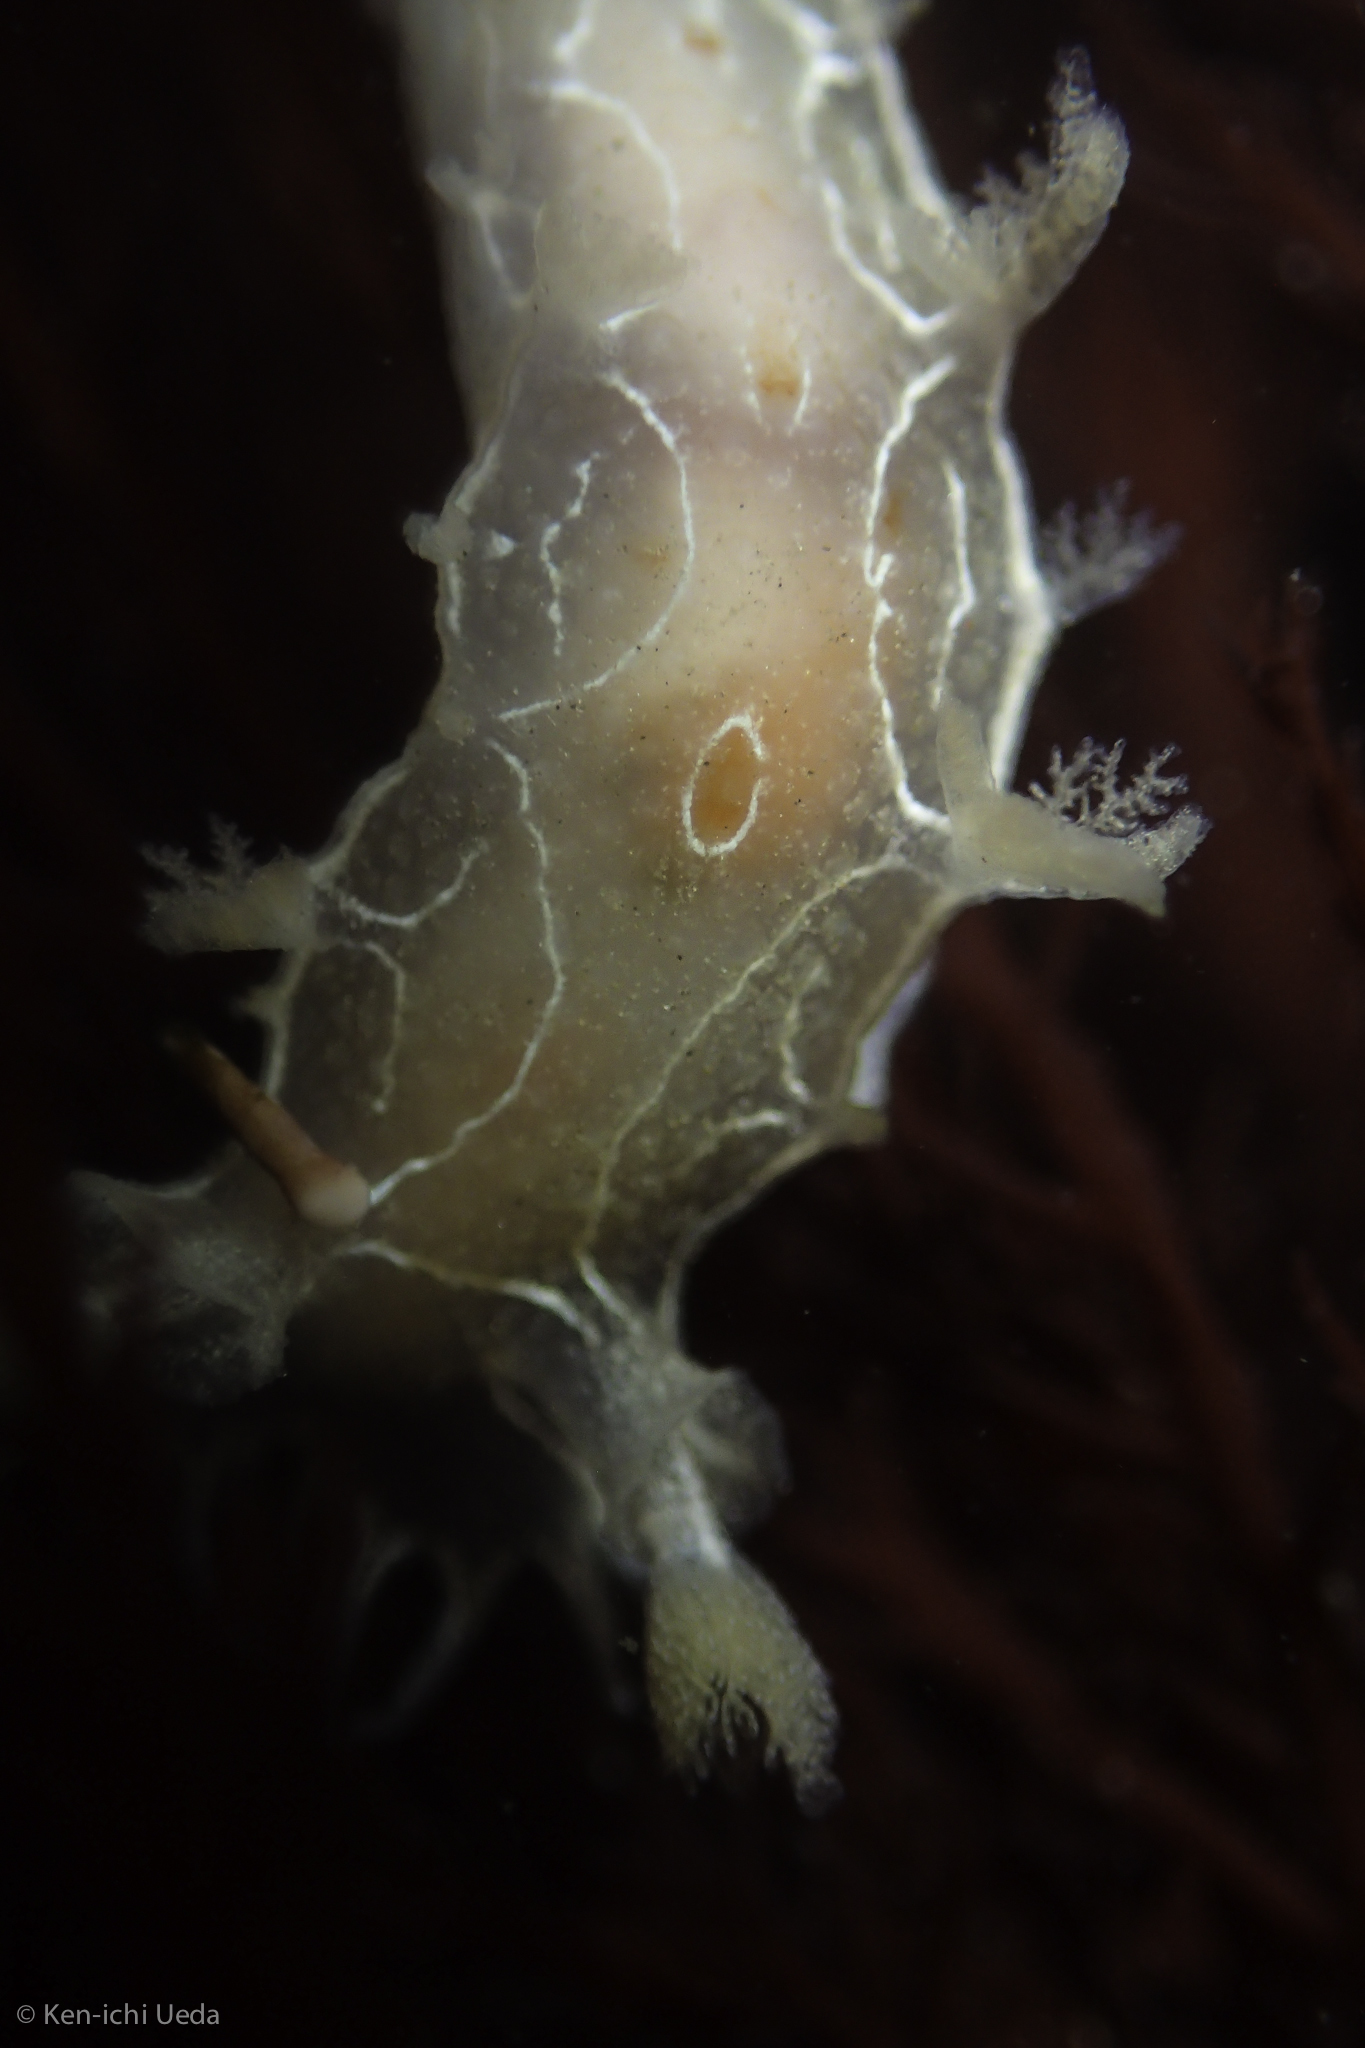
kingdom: Animalia
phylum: Mollusca
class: Gastropoda
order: Nudibranchia
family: Tritoniidae
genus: Tritonia
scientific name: Tritonia festiva
